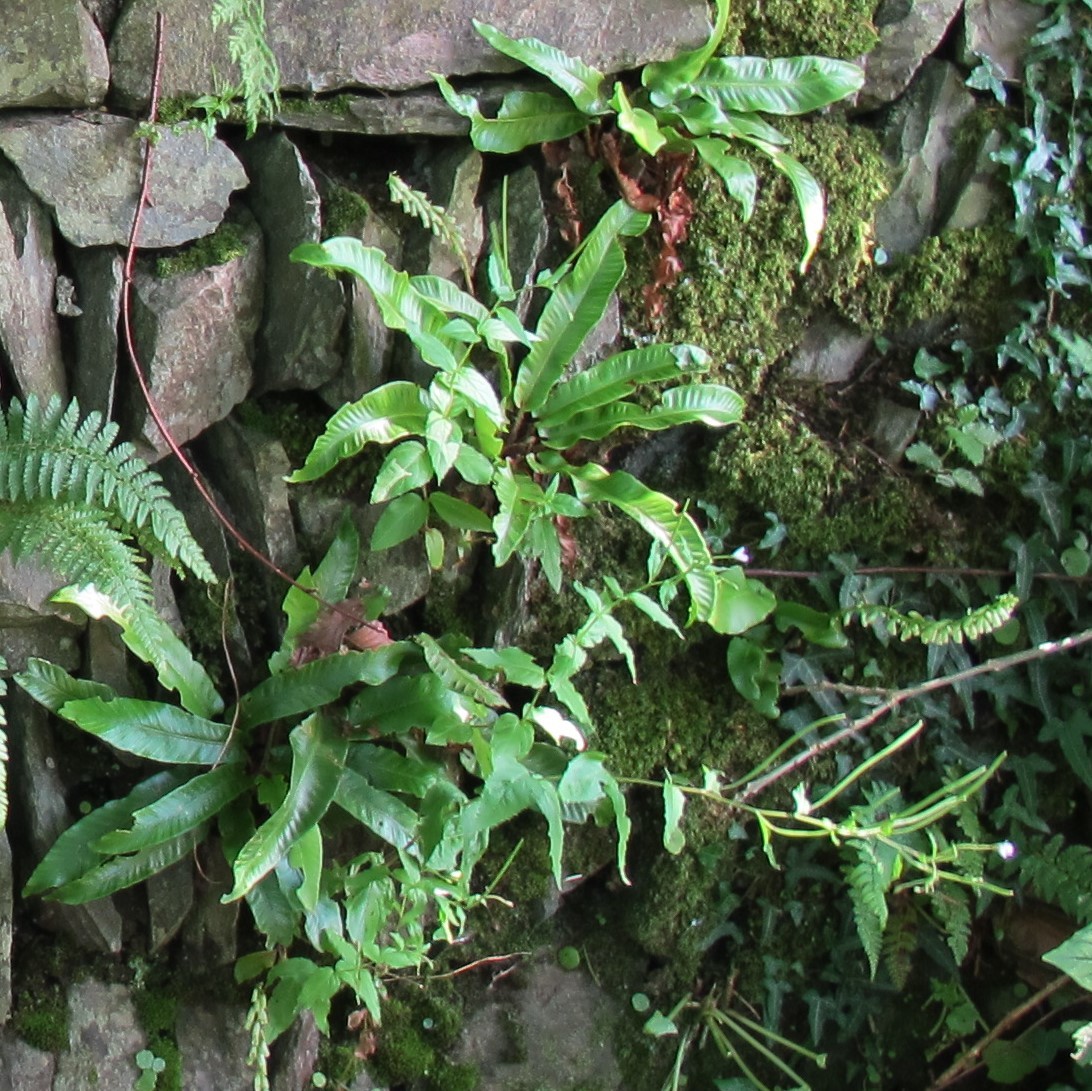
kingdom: Plantae
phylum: Tracheophyta
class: Polypodiopsida
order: Polypodiales
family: Aspleniaceae
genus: Asplenium
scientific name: Asplenium scolopendrium
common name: Hart's-tongue fern
